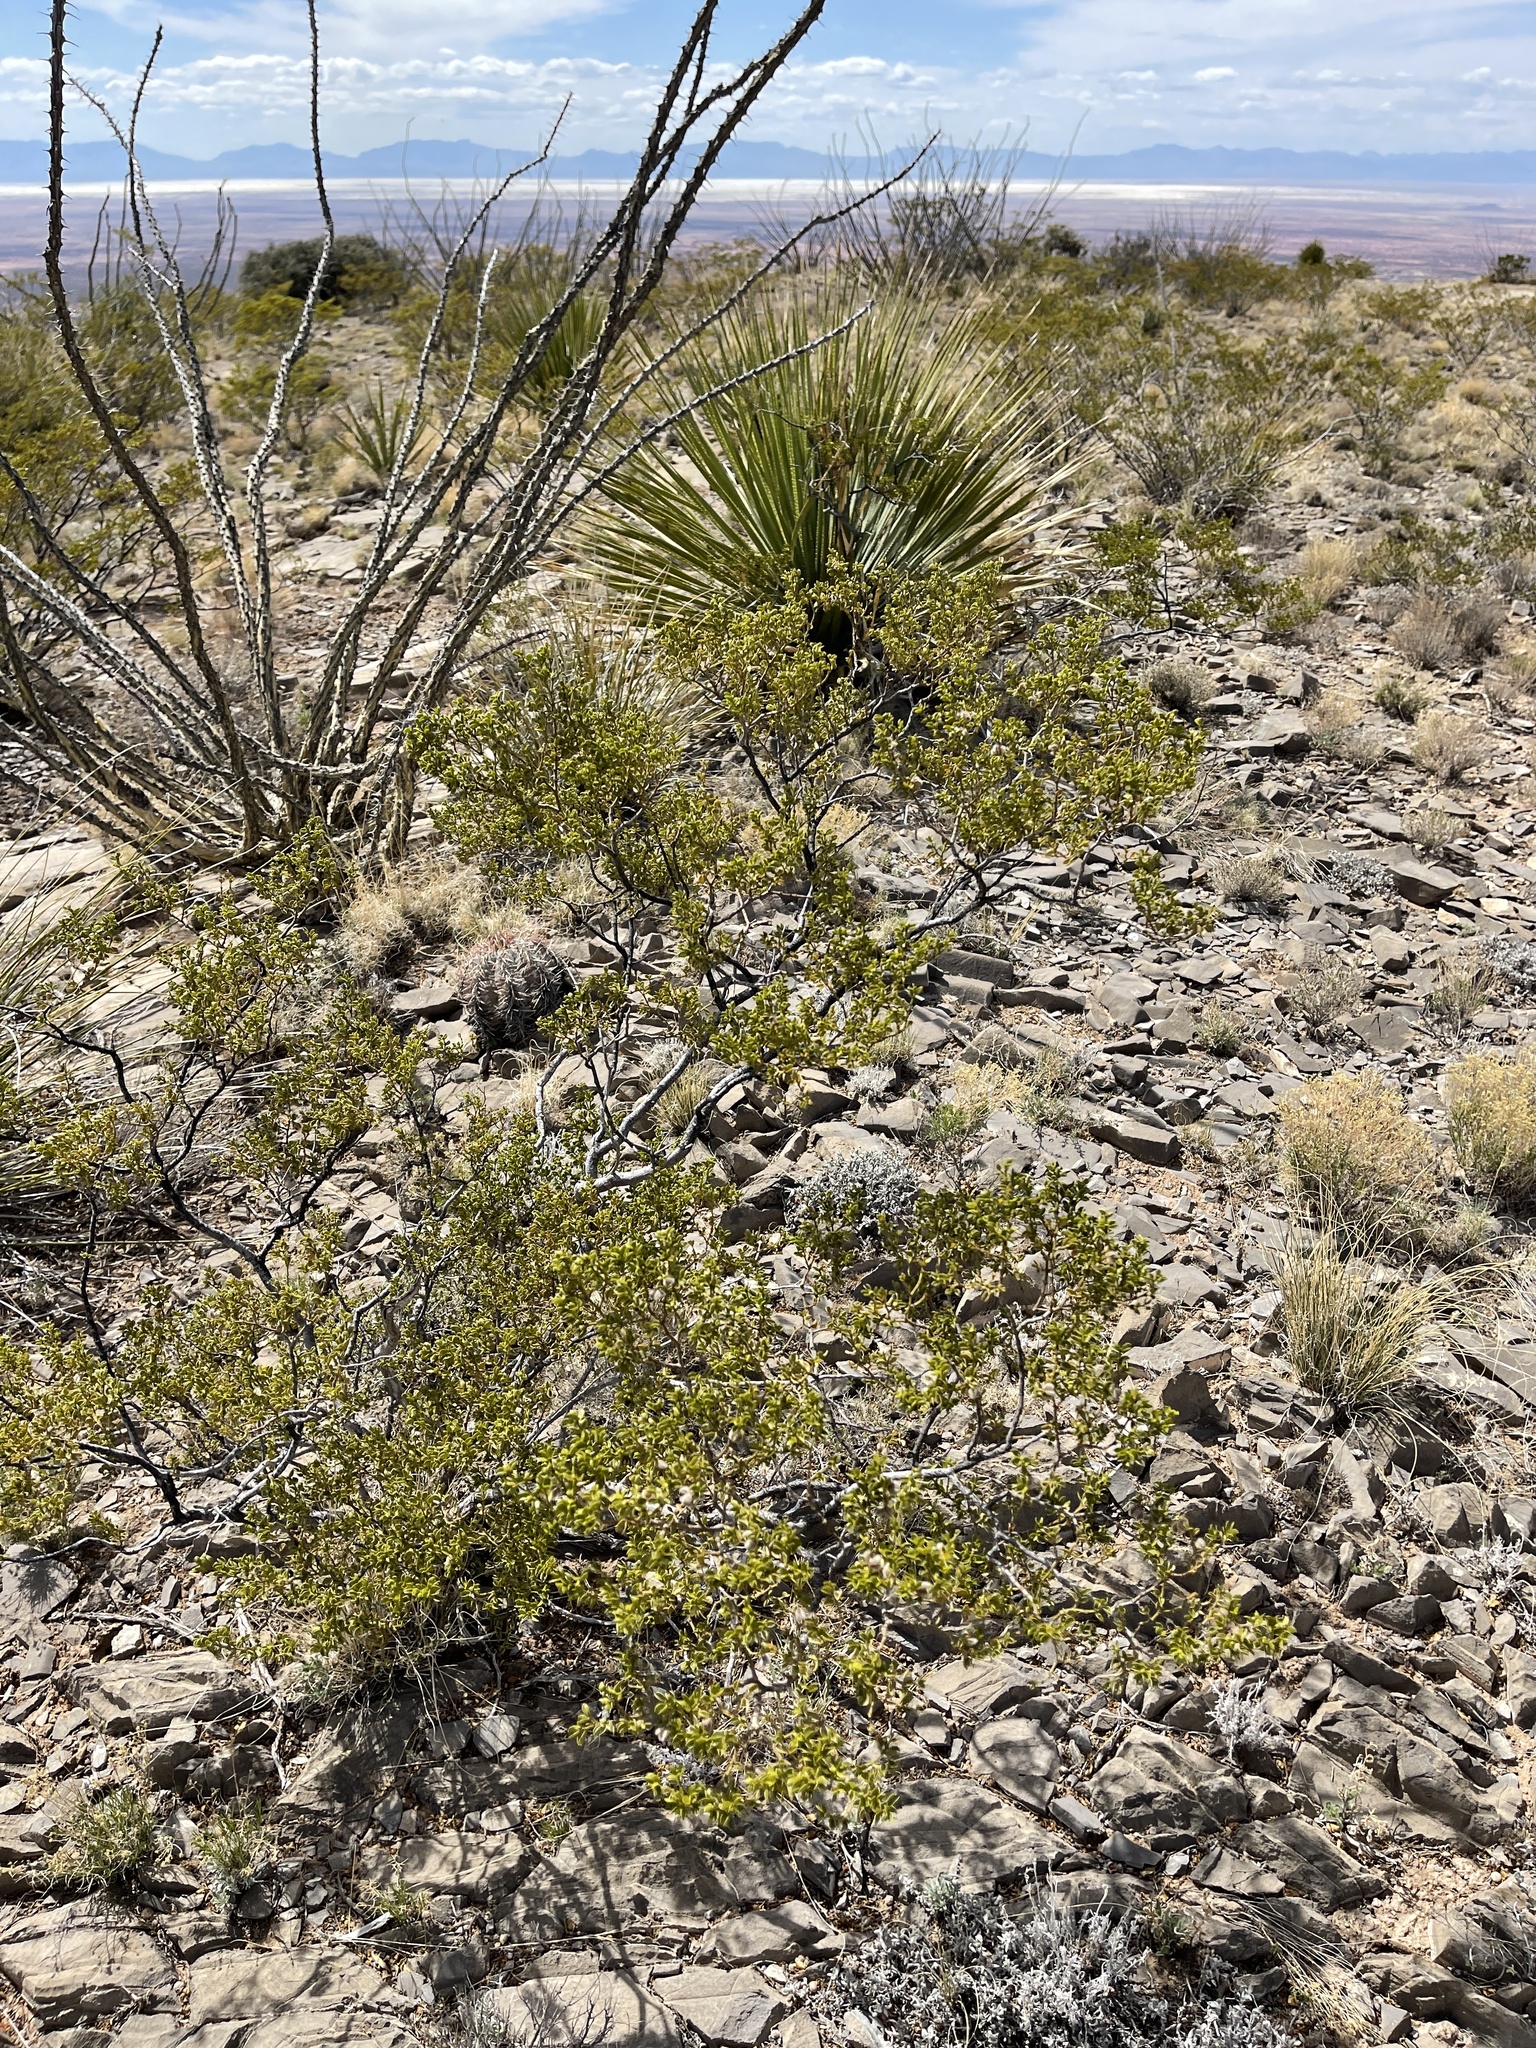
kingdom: Plantae
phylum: Tracheophyta
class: Magnoliopsida
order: Zygophyllales
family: Zygophyllaceae
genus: Larrea
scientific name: Larrea tridentata
